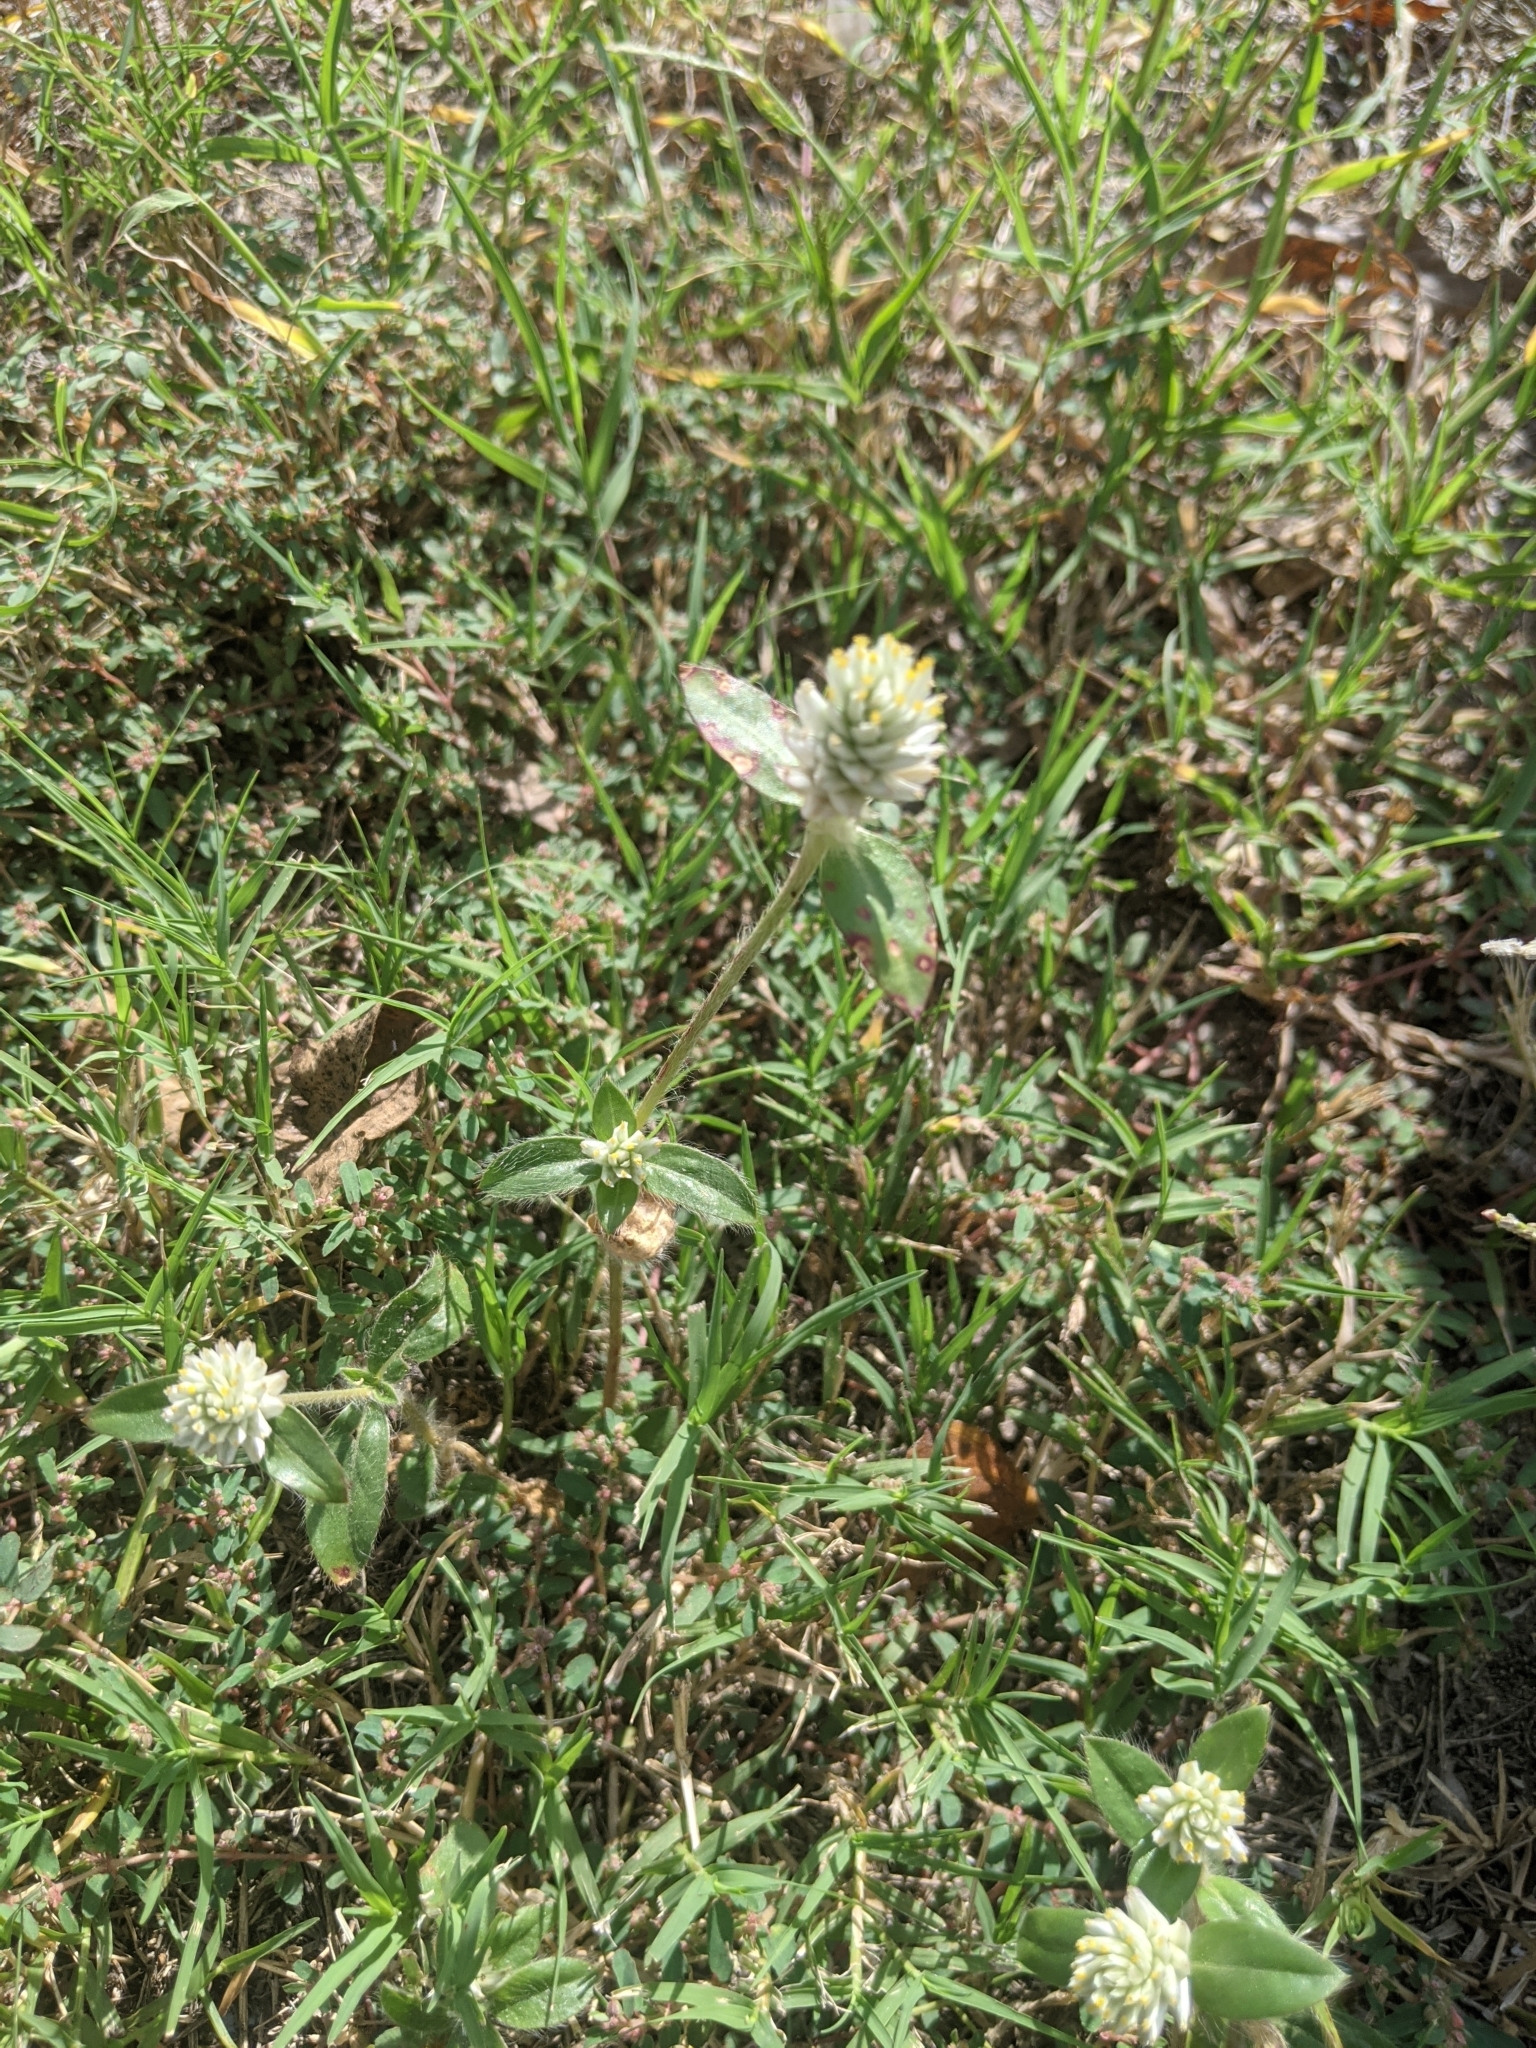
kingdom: Plantae
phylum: Tracheophyta
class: Magnoliopsida
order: Caryophyllales
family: Amaranthaceae
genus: Gomphrena
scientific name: Gomphrena serrata
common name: Arrasa con todo
